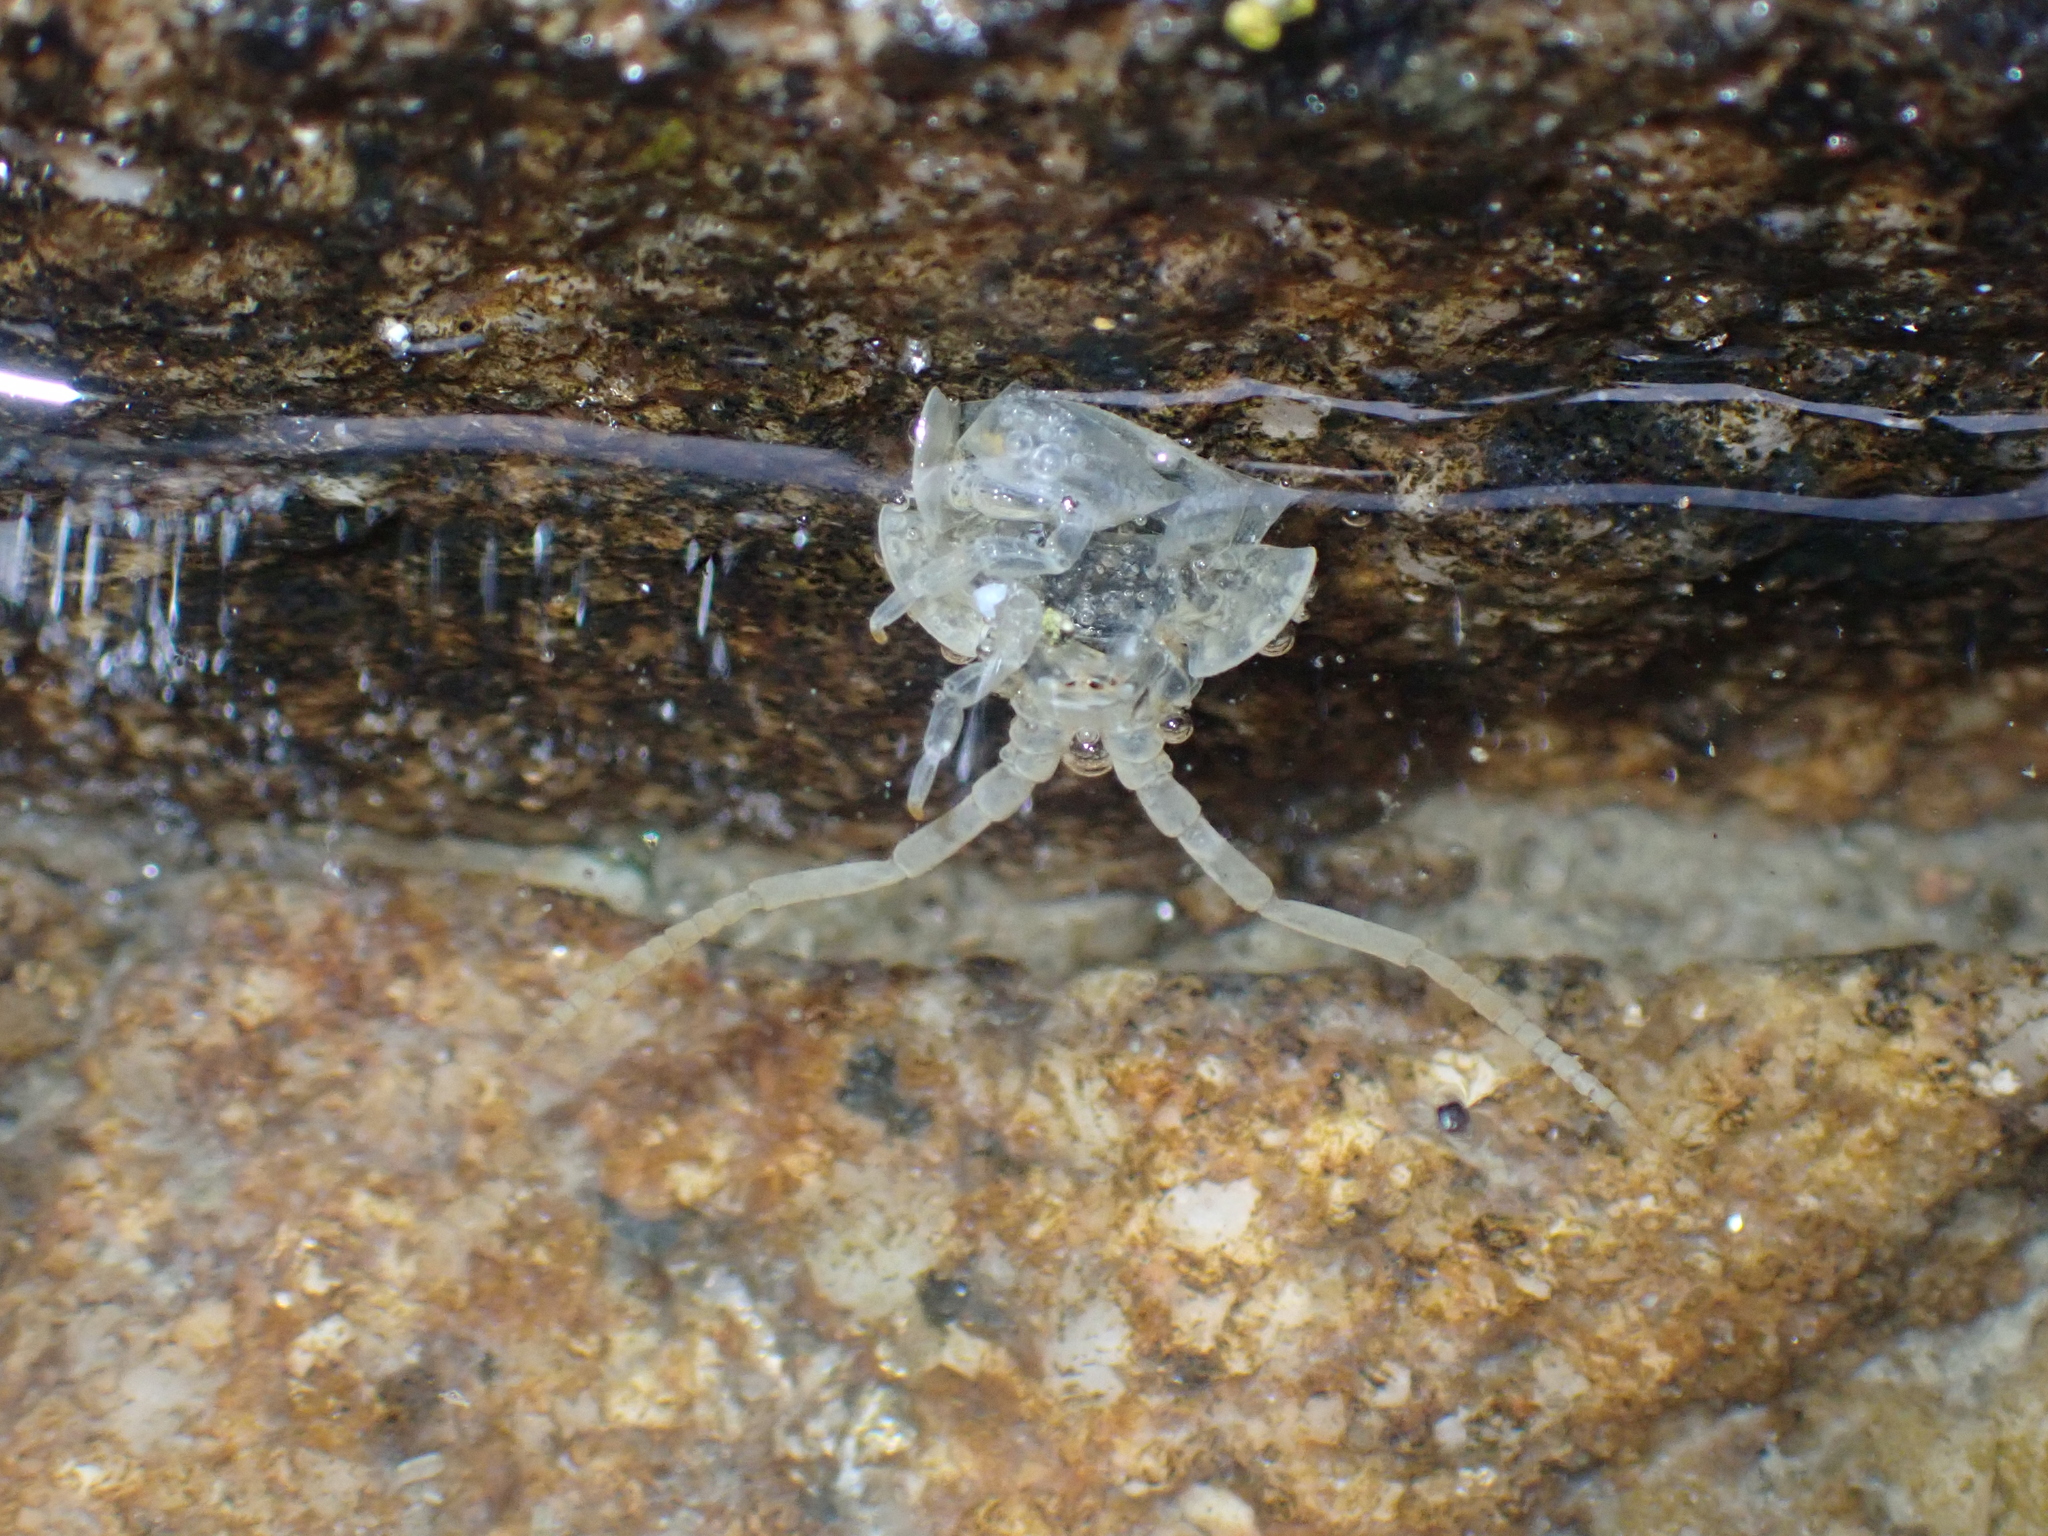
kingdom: Animalia
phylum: Arthropoda
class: Malacostraca
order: Isopoda
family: Ligiidae
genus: Ligia
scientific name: Ligia oceanica
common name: Sea slater
